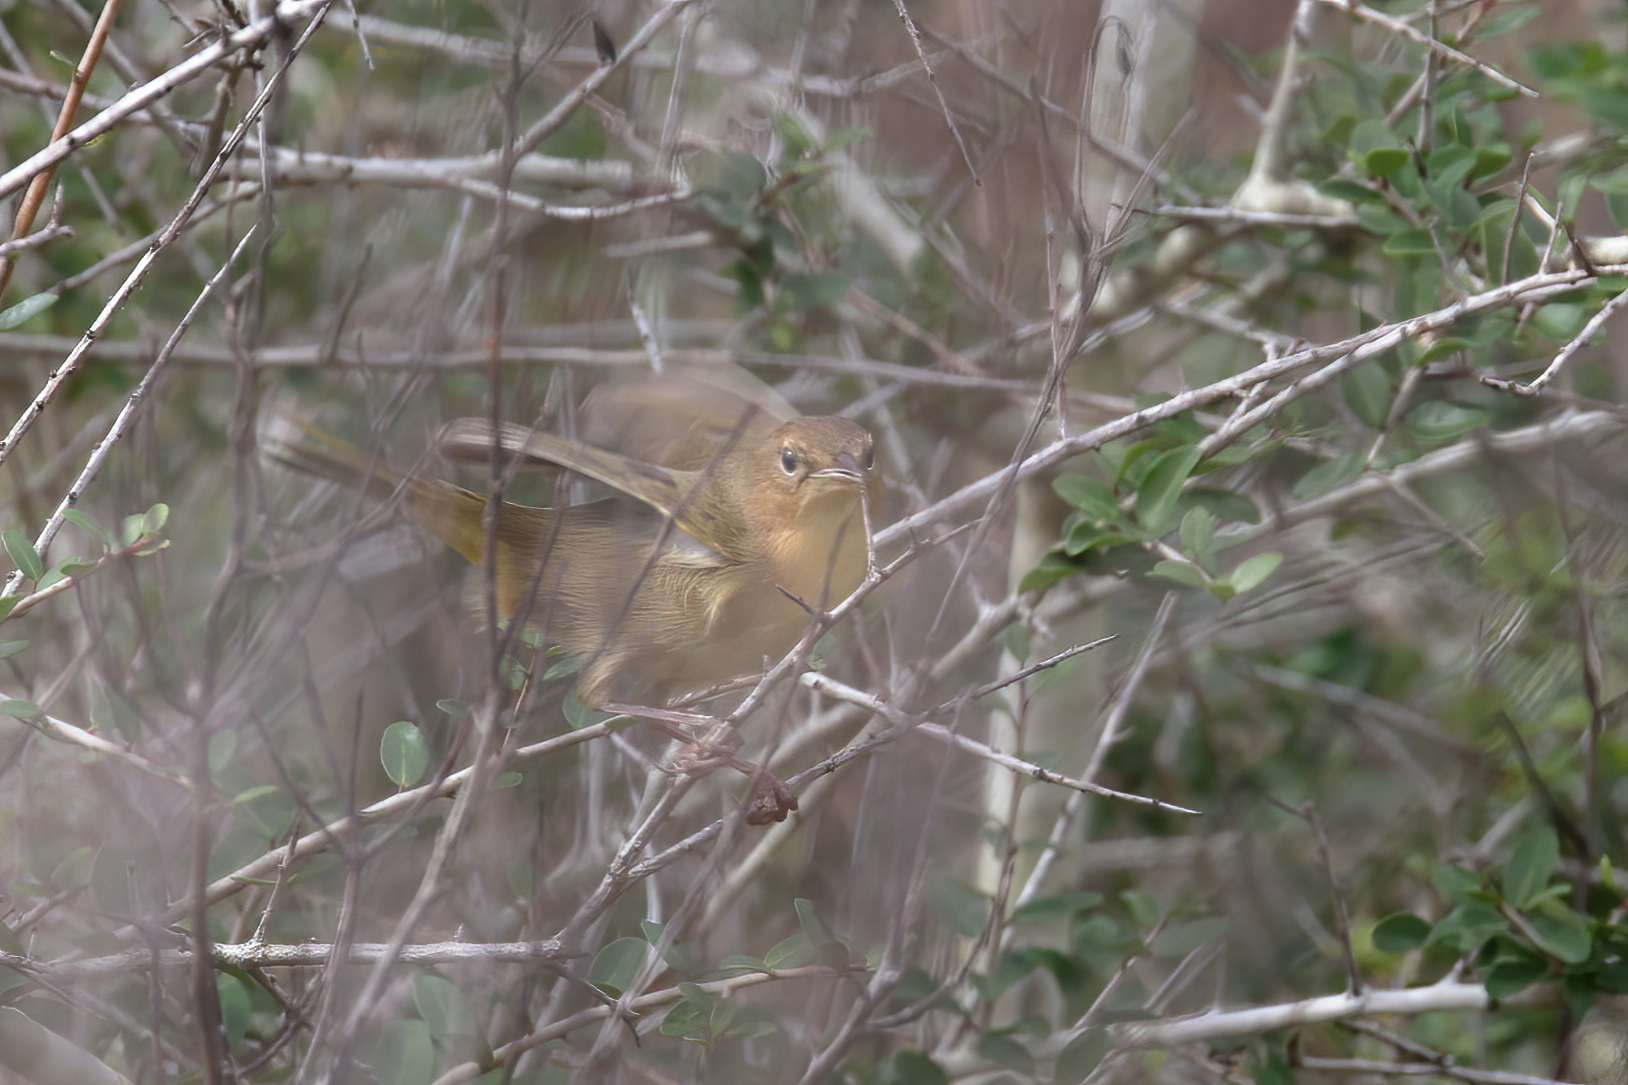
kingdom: Animalia
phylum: Chordata
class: Aves
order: Passeriformes
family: Parulidae
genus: Geothlypis
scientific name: Geothlypis trichas
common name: Common yellowthroat
